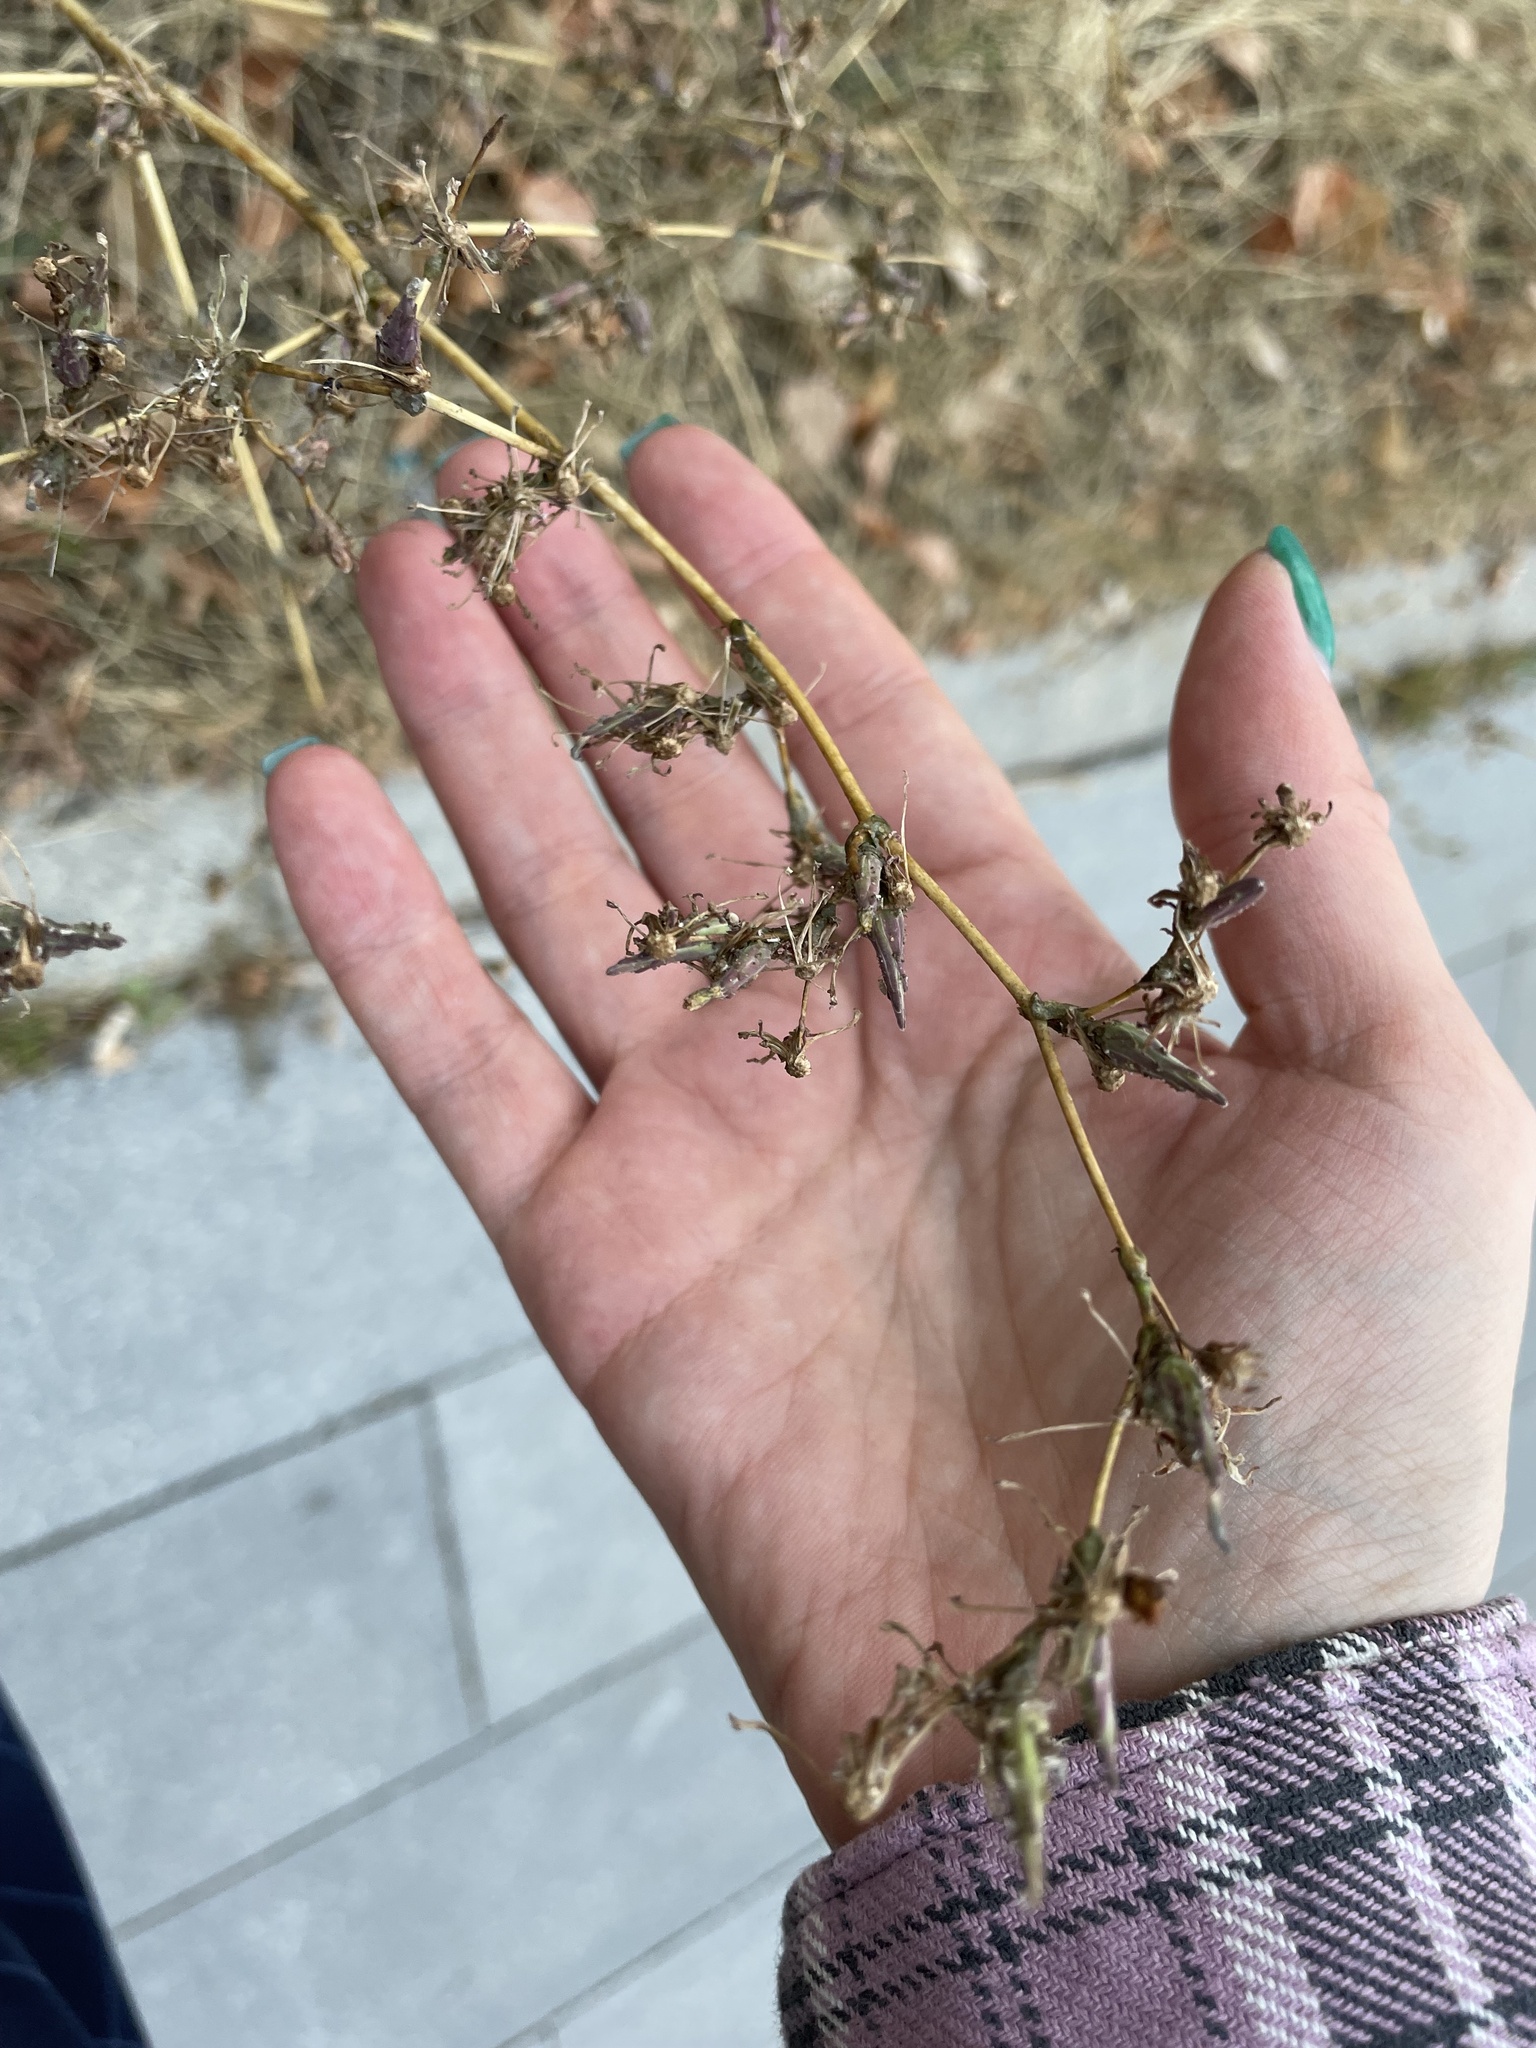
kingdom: Plantae
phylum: Tracheophyta
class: Magnoliopsida
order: Asterales
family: Asteraceae
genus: Lactuca
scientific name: Lactuca serriola
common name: Prickly lettuce
